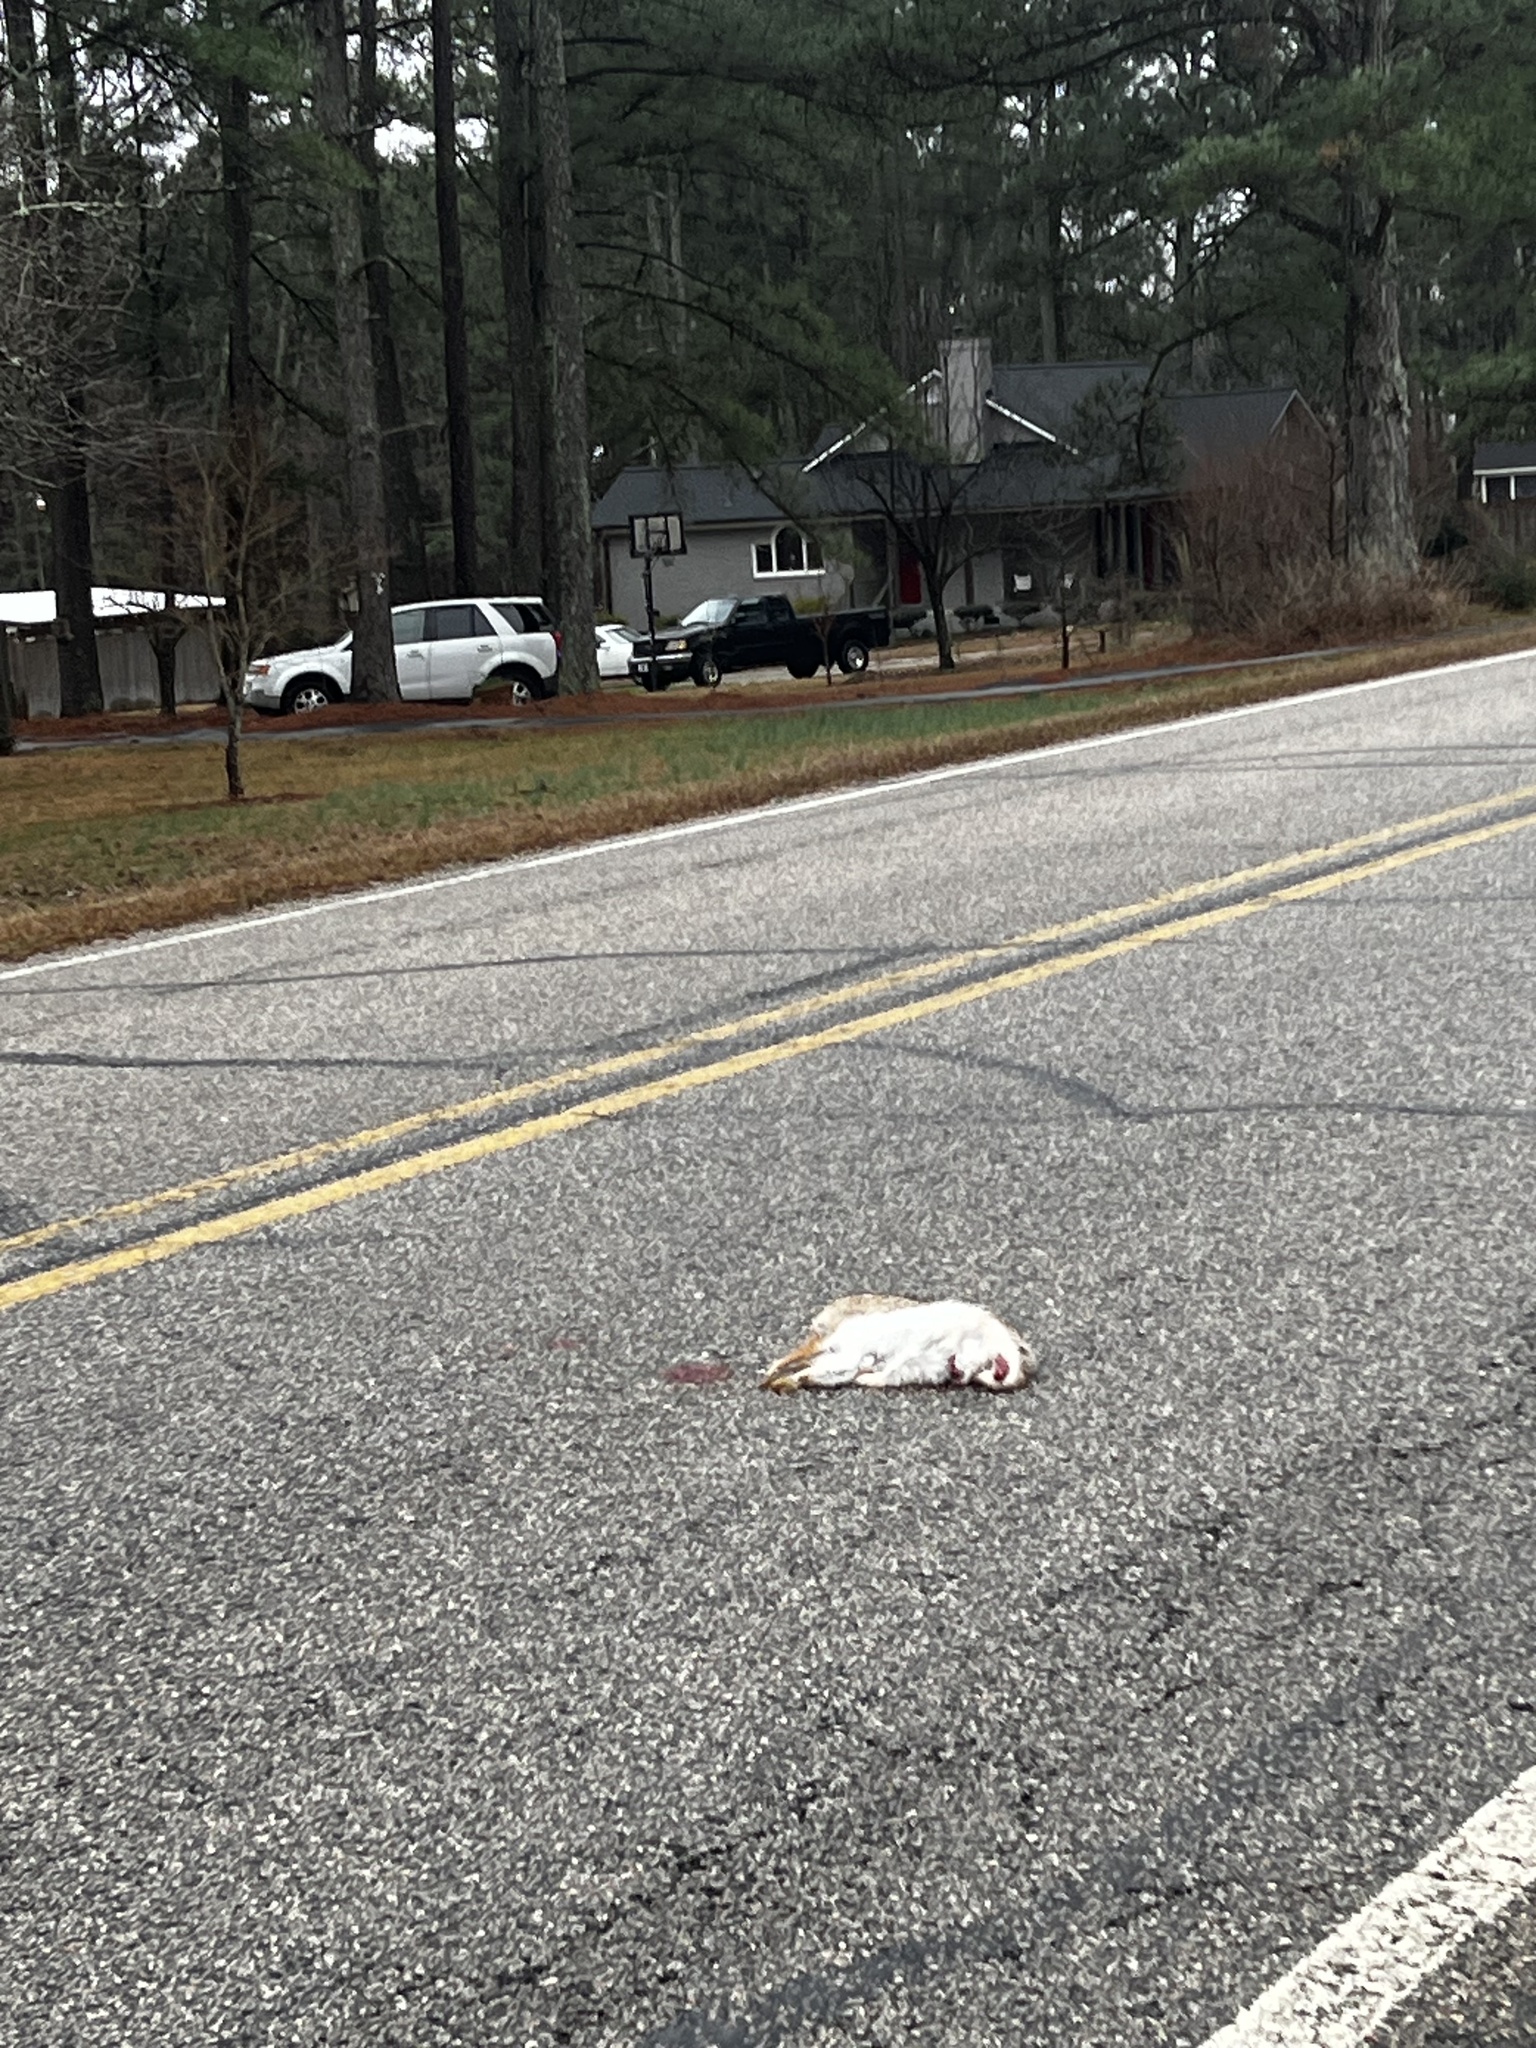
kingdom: Animalia
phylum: Chordata
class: Mammalia
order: Lagomorpha
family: Leporidae
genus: Sylvilagus
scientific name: Sylvilagus floridanus
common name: Eastern cottontail
